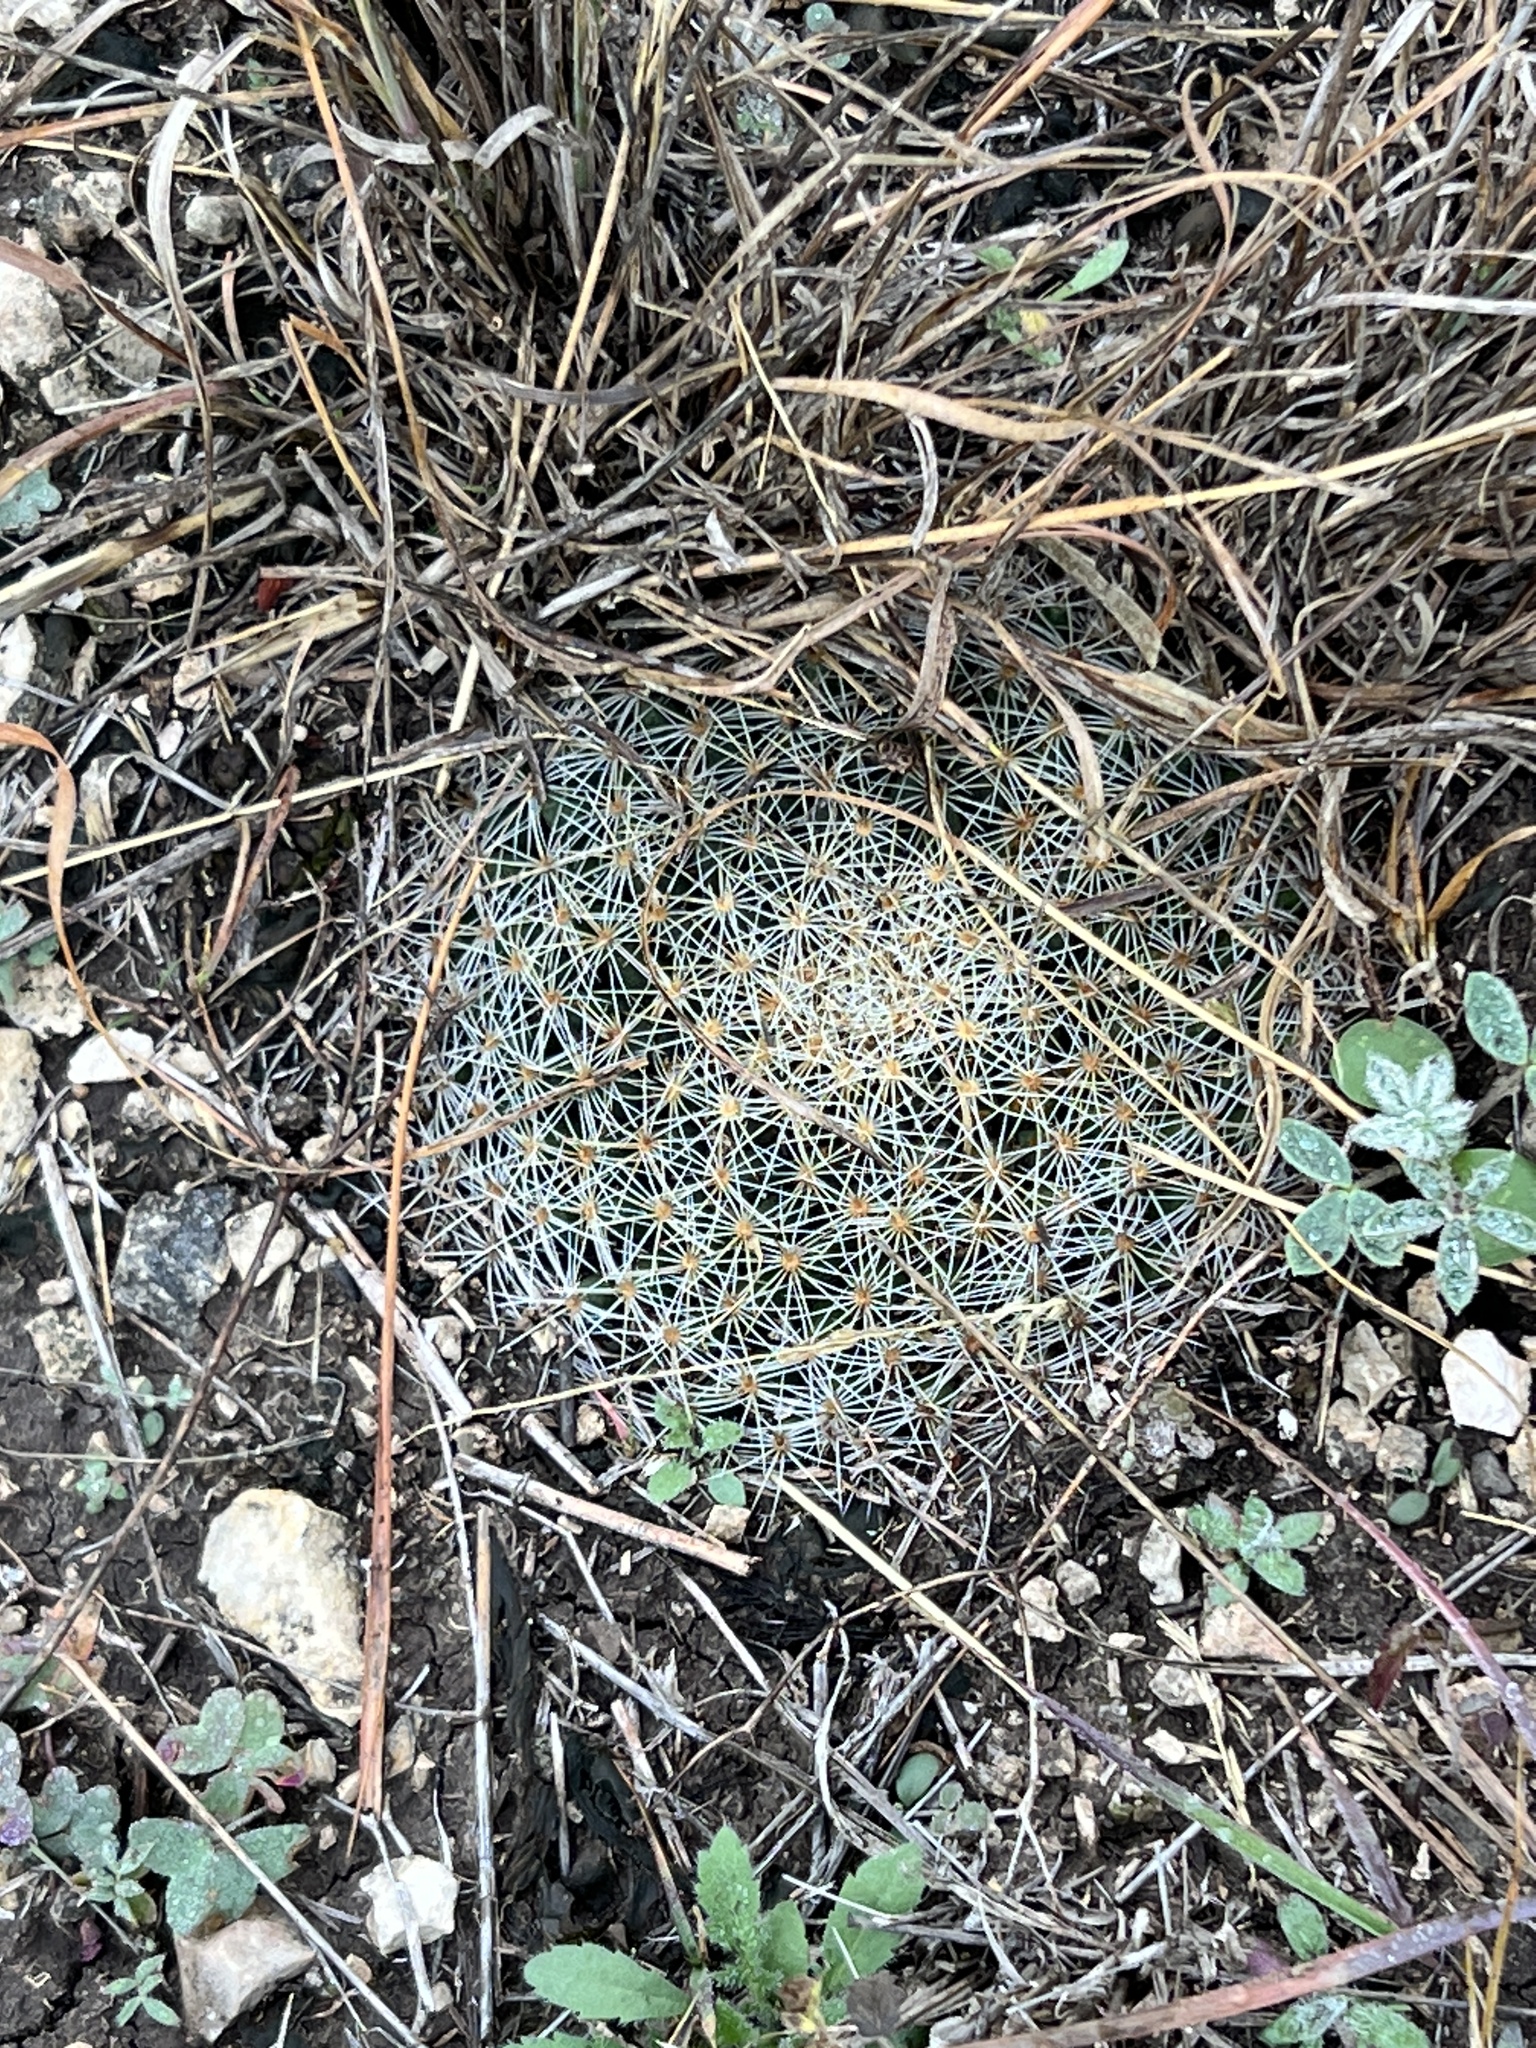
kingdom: Plantae
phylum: Tracheophyta
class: Magnoliopsida
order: Caryophyllales
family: Cactaceae
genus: Mammillaria
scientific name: Mammillaria heyderi
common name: Little nipple cactus
